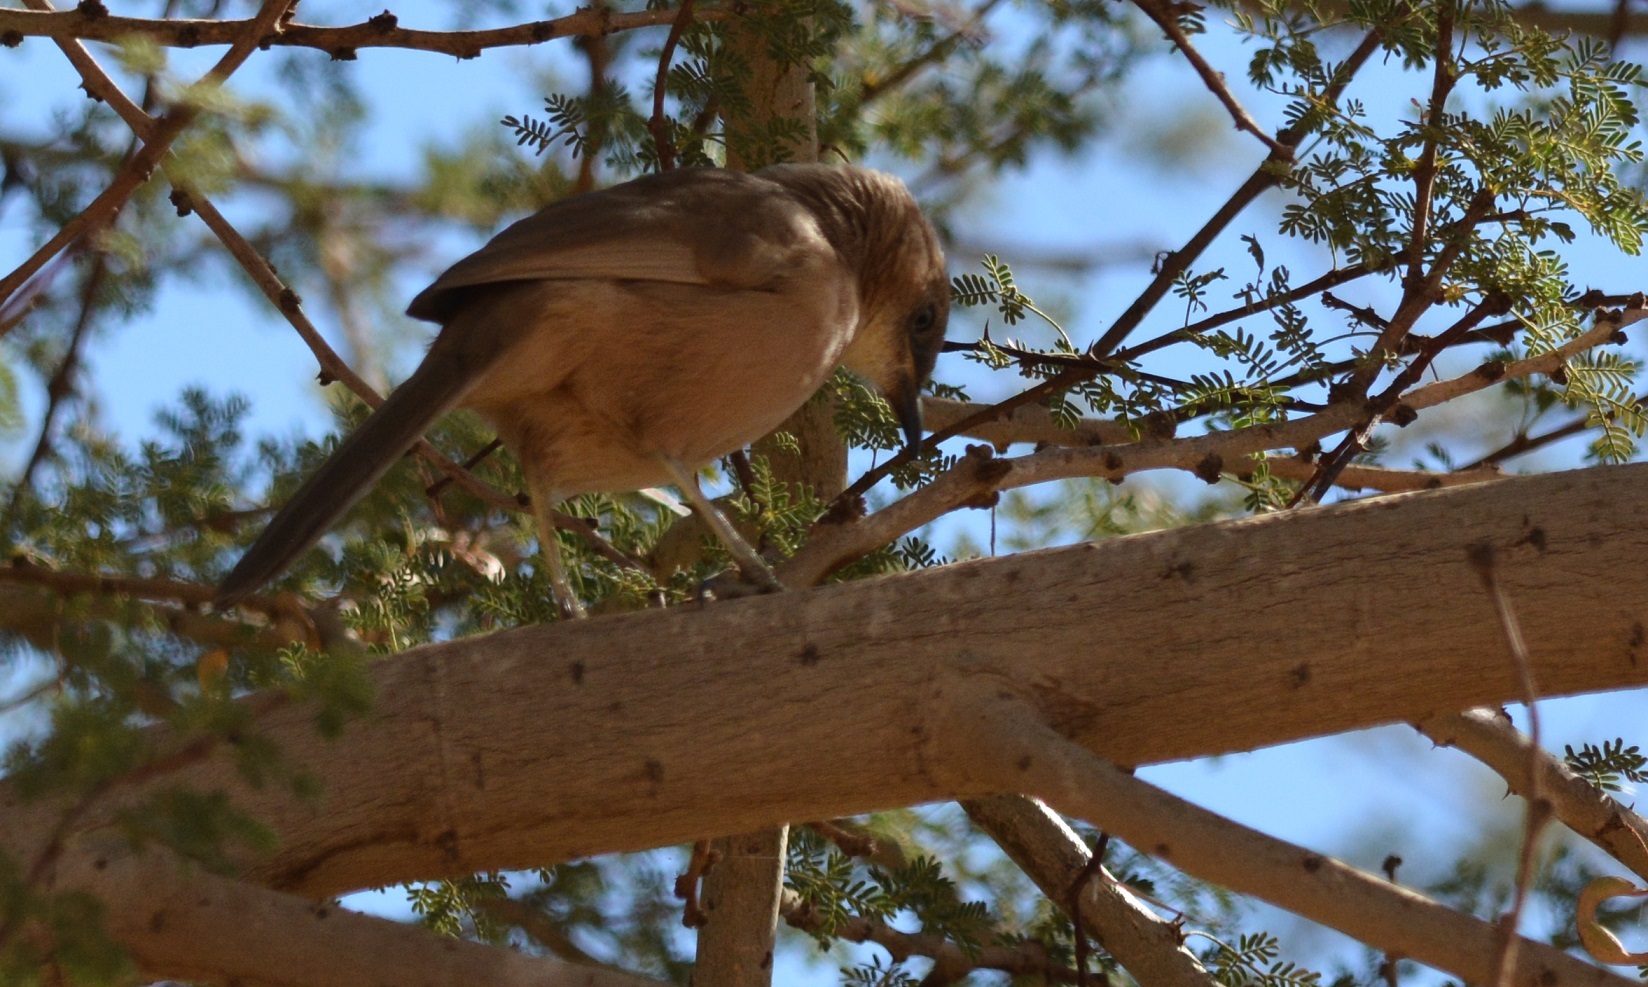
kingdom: Animalia
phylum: Chordata
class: Aves
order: Passeriformes
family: Leiothrichidae
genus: Turdoides
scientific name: Turdoides fulva
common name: Fulvous babbler
